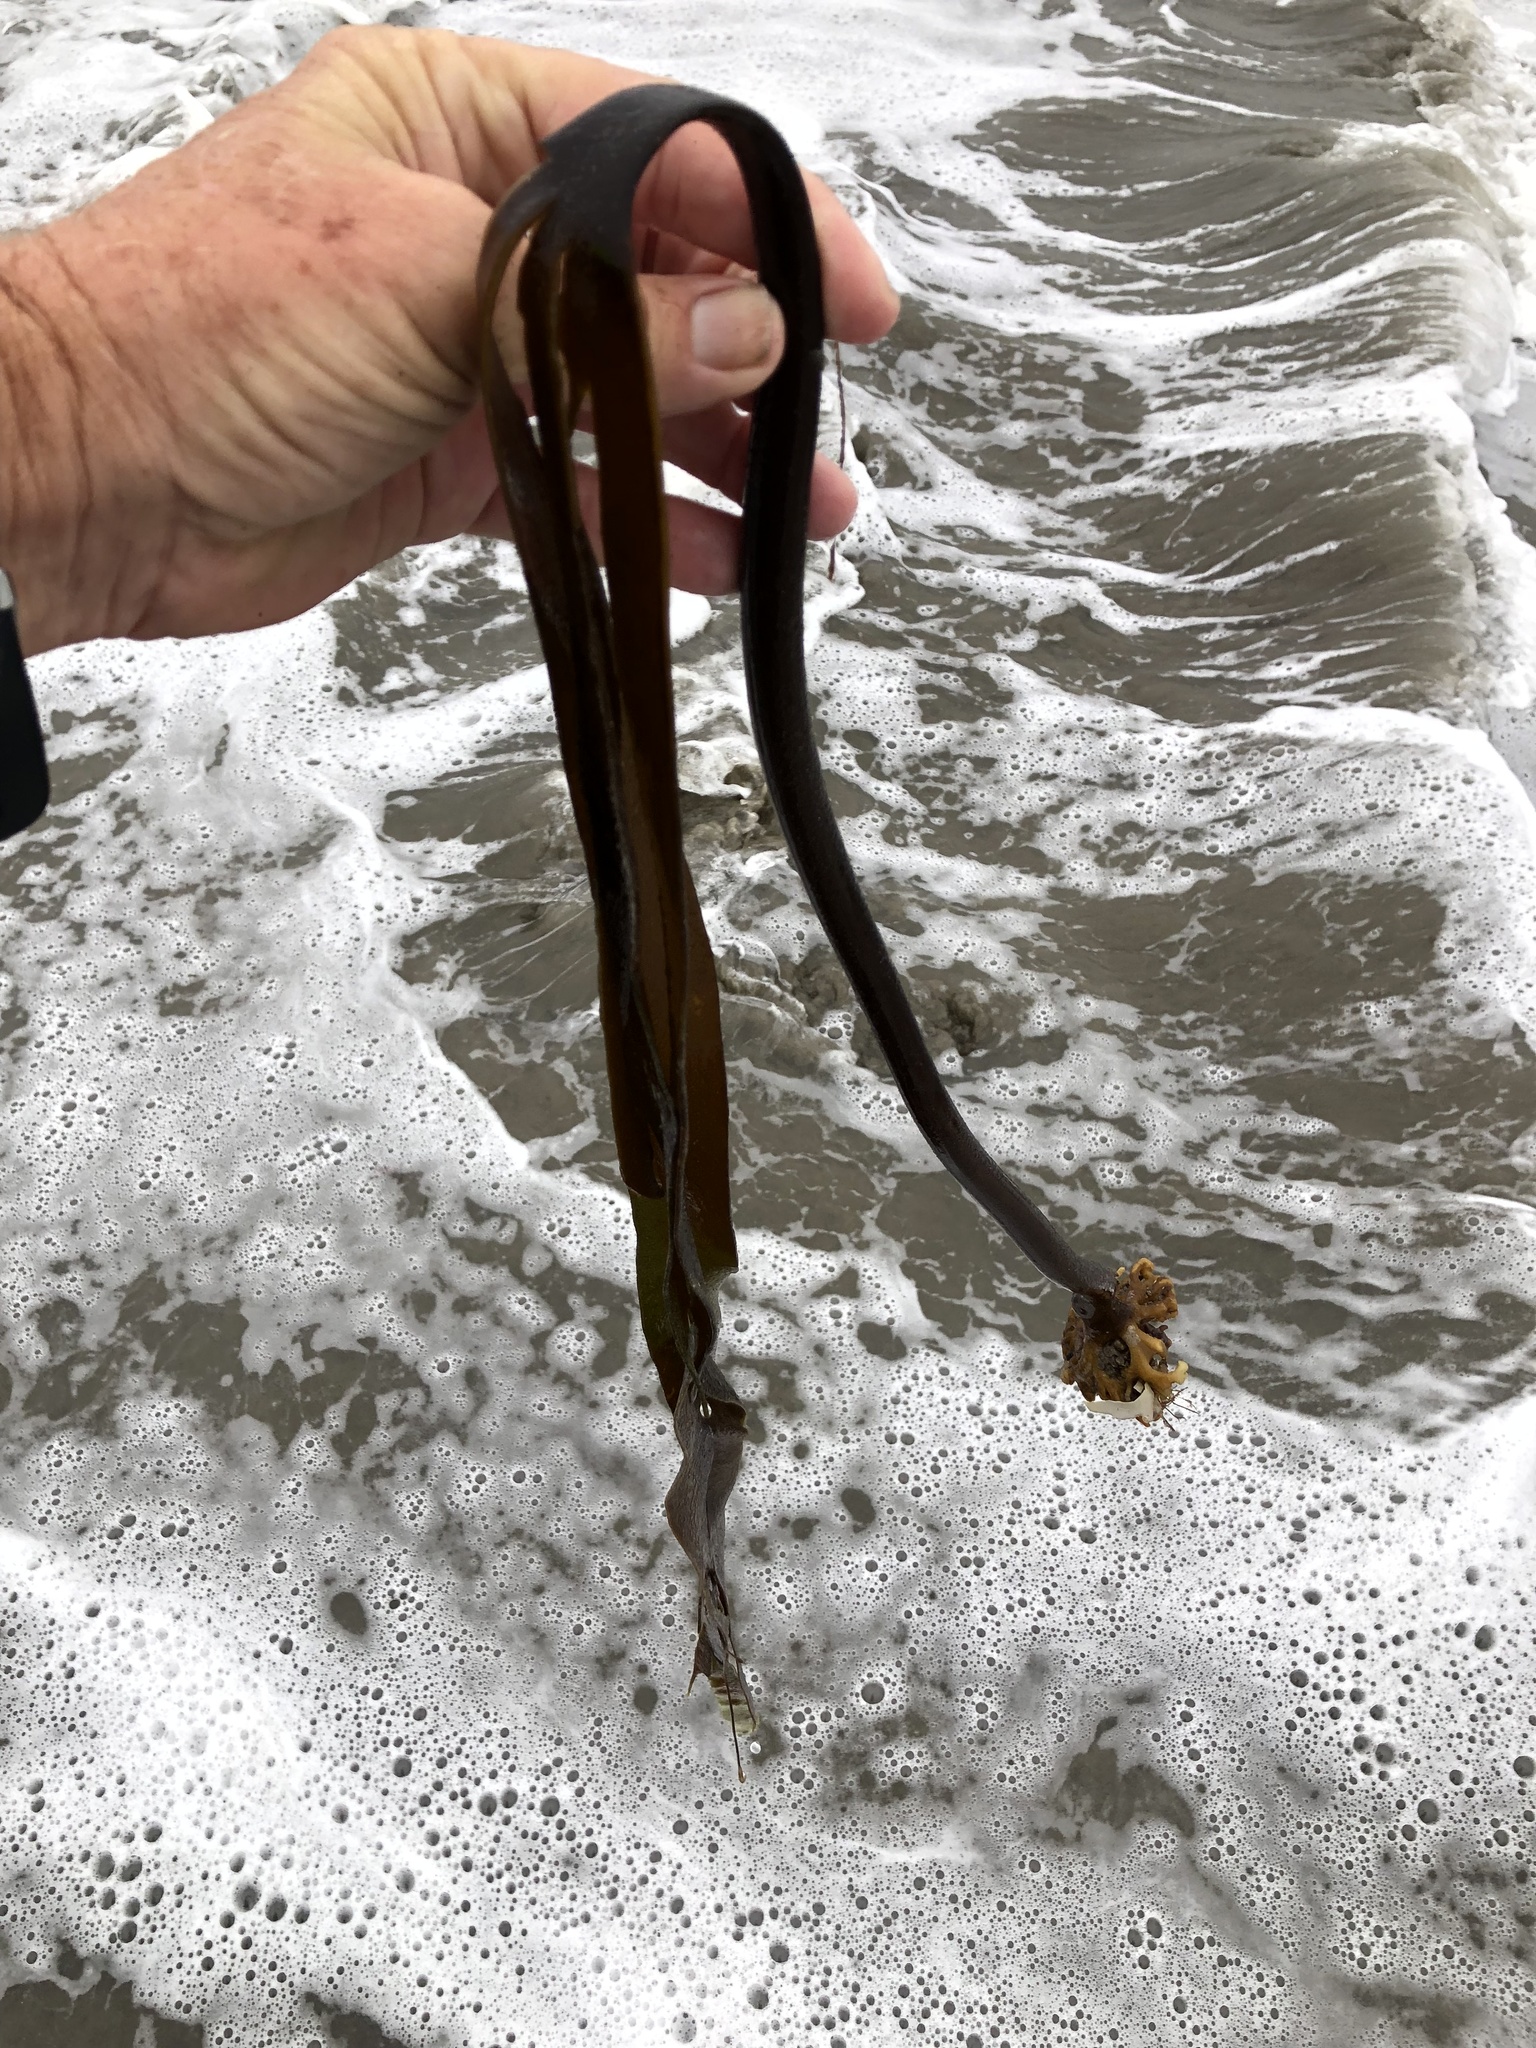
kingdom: Chromista
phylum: Ochrophyta
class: Phaeophyceae
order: Laminariales
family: Laminariaceae
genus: Laminaria
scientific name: Laminaria setchellii
